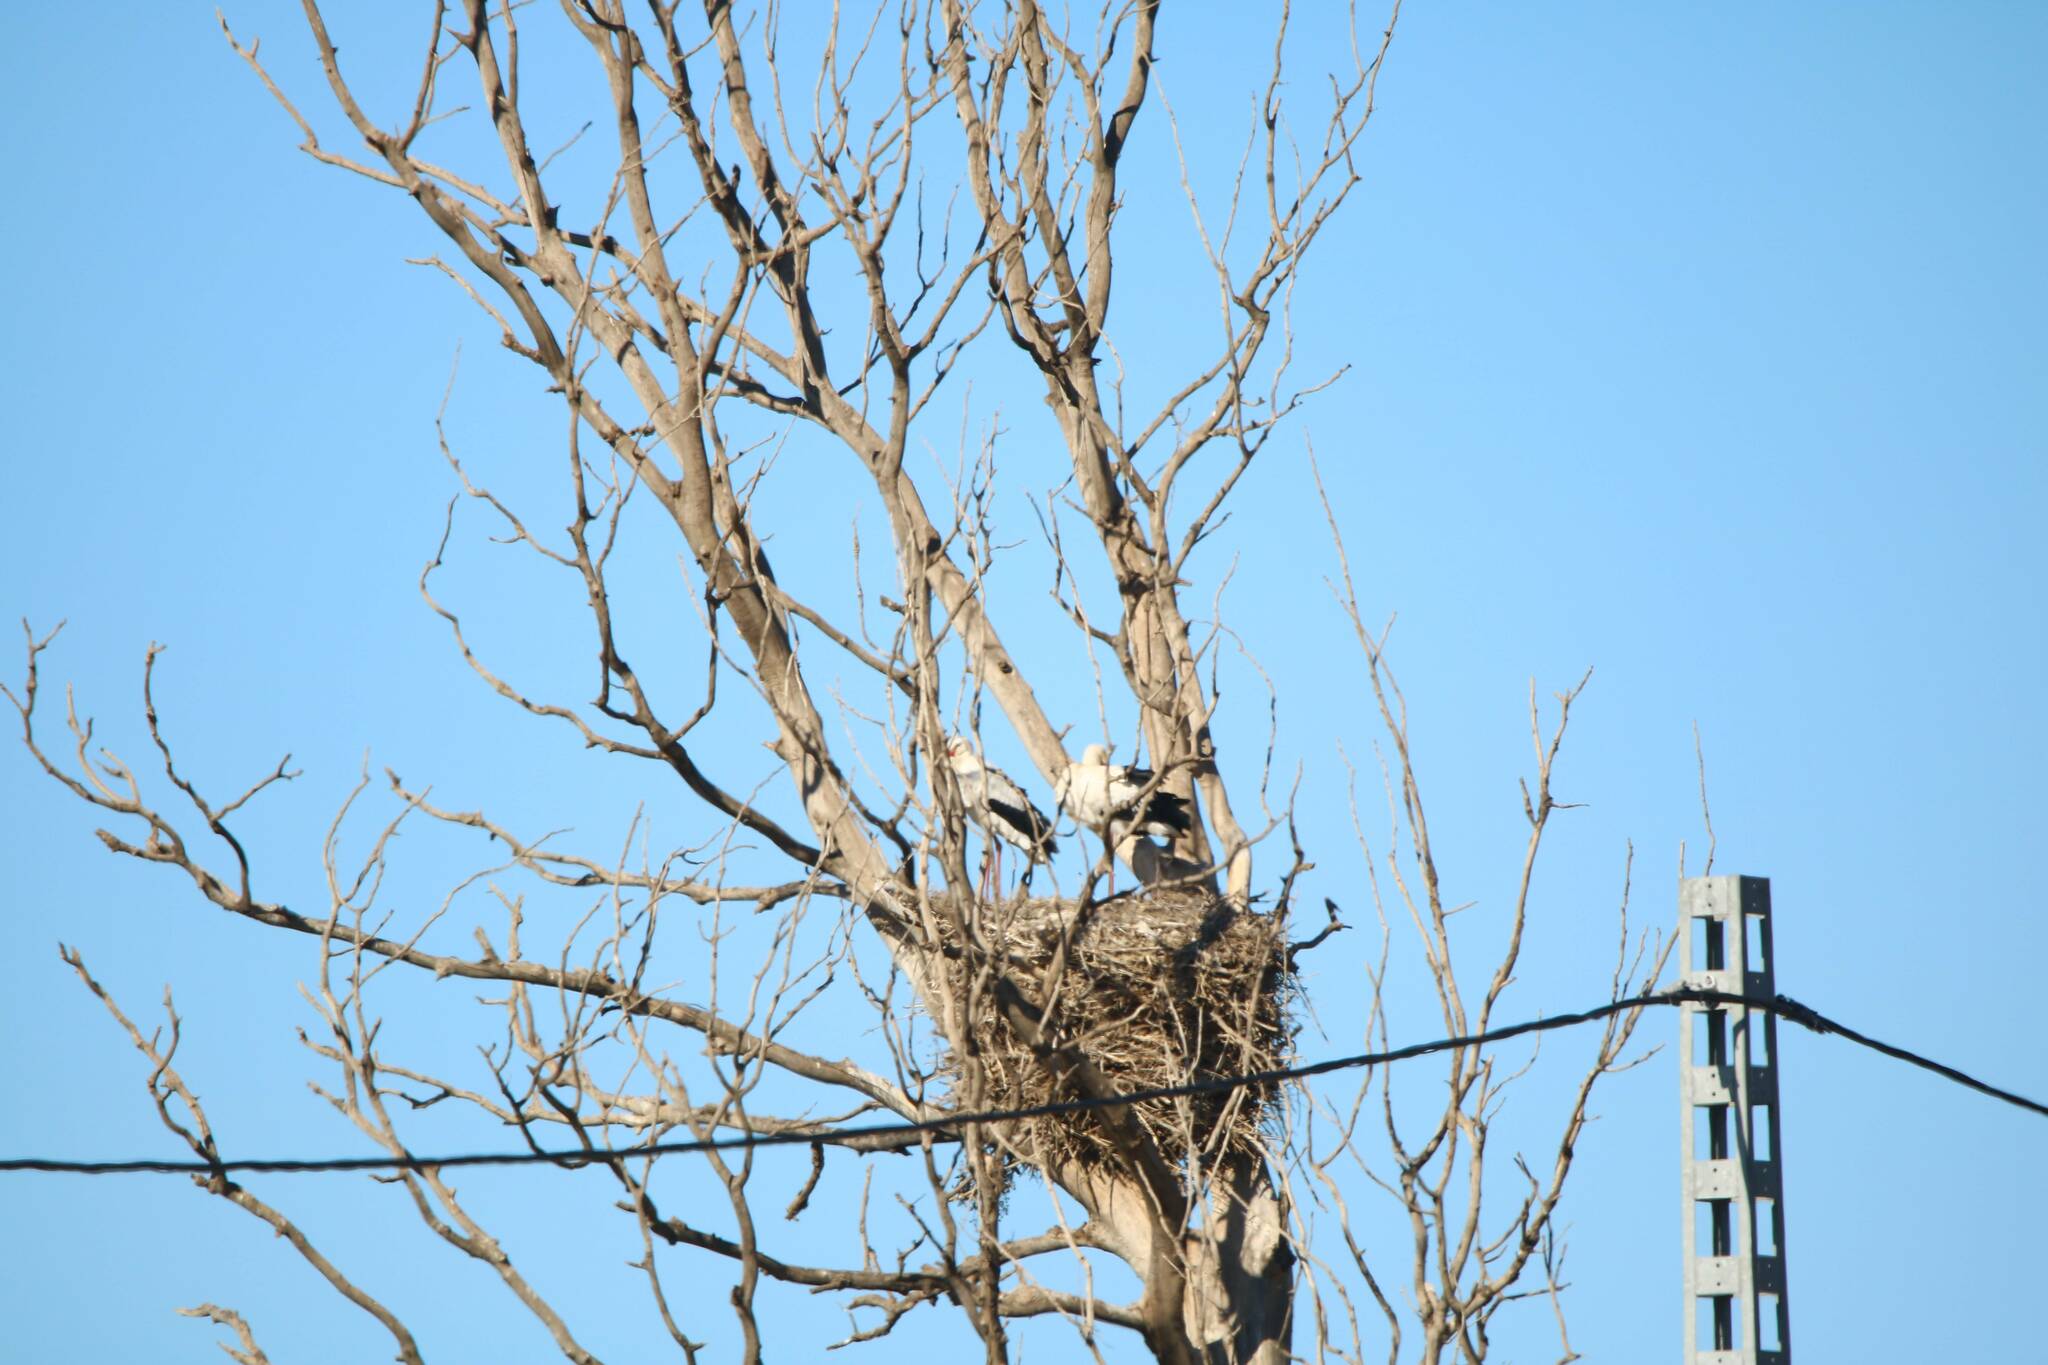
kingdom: Animalia
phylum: Chordata
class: Aves
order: Ciconiiformes
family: Ciconiidae
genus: Ciconia
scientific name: Ciconia ciconia
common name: White stork
